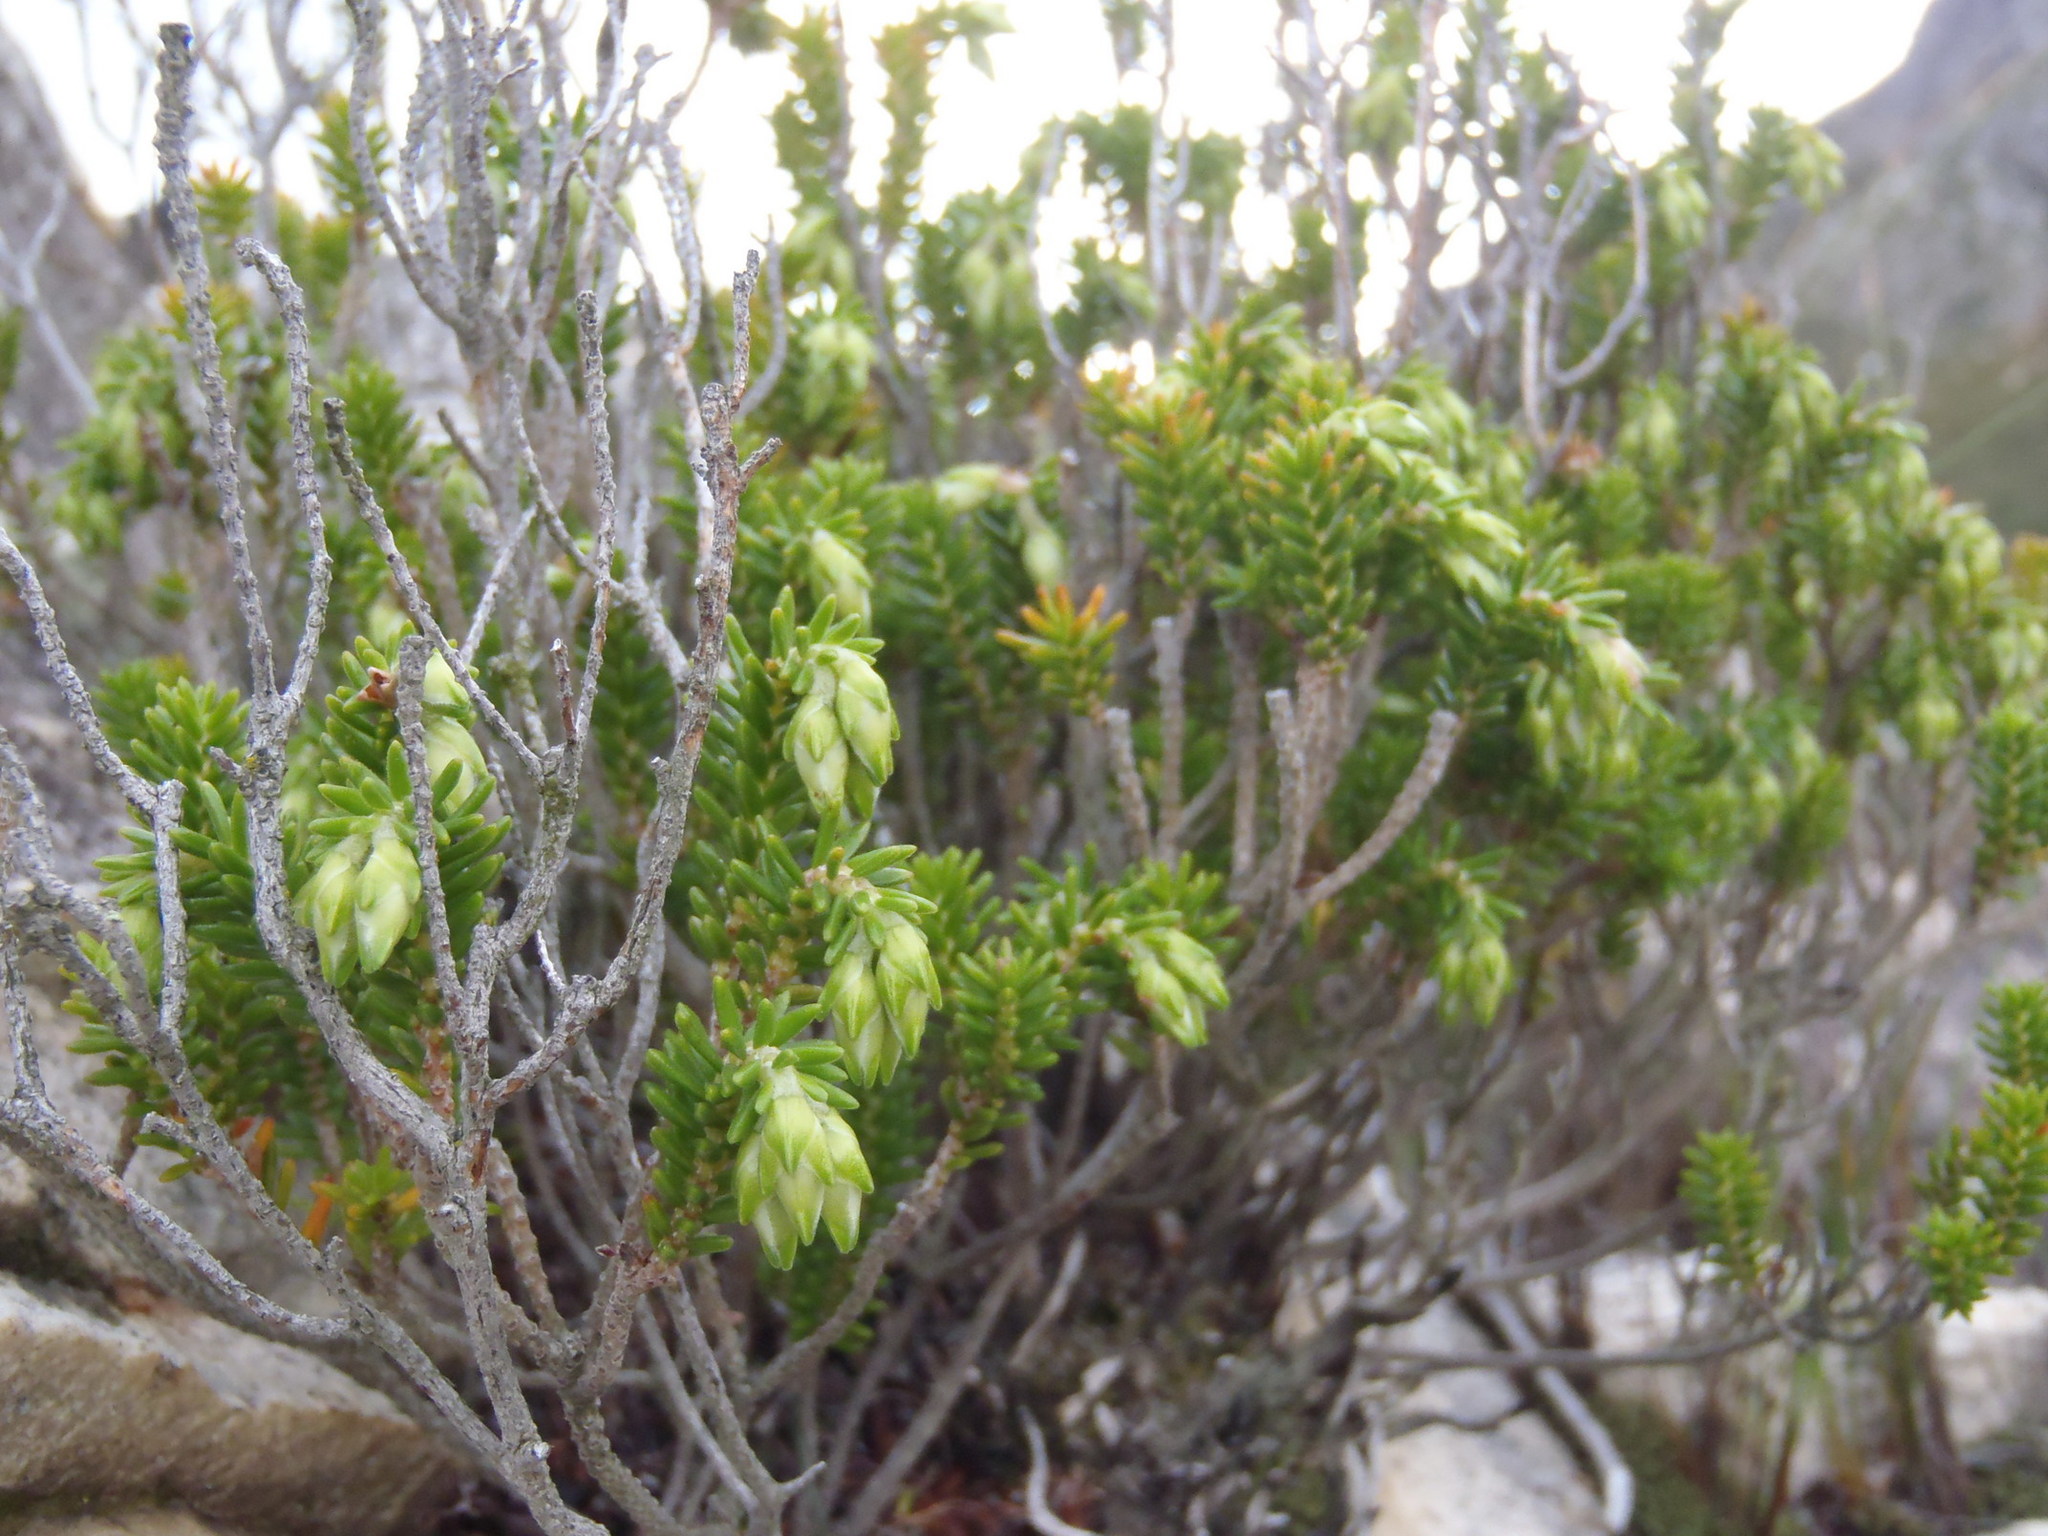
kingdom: Plantae
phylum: Tracheophyta
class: Magnoliopsida
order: Ericales
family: Ericaceae
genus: Erica
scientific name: Erica viridiflora
